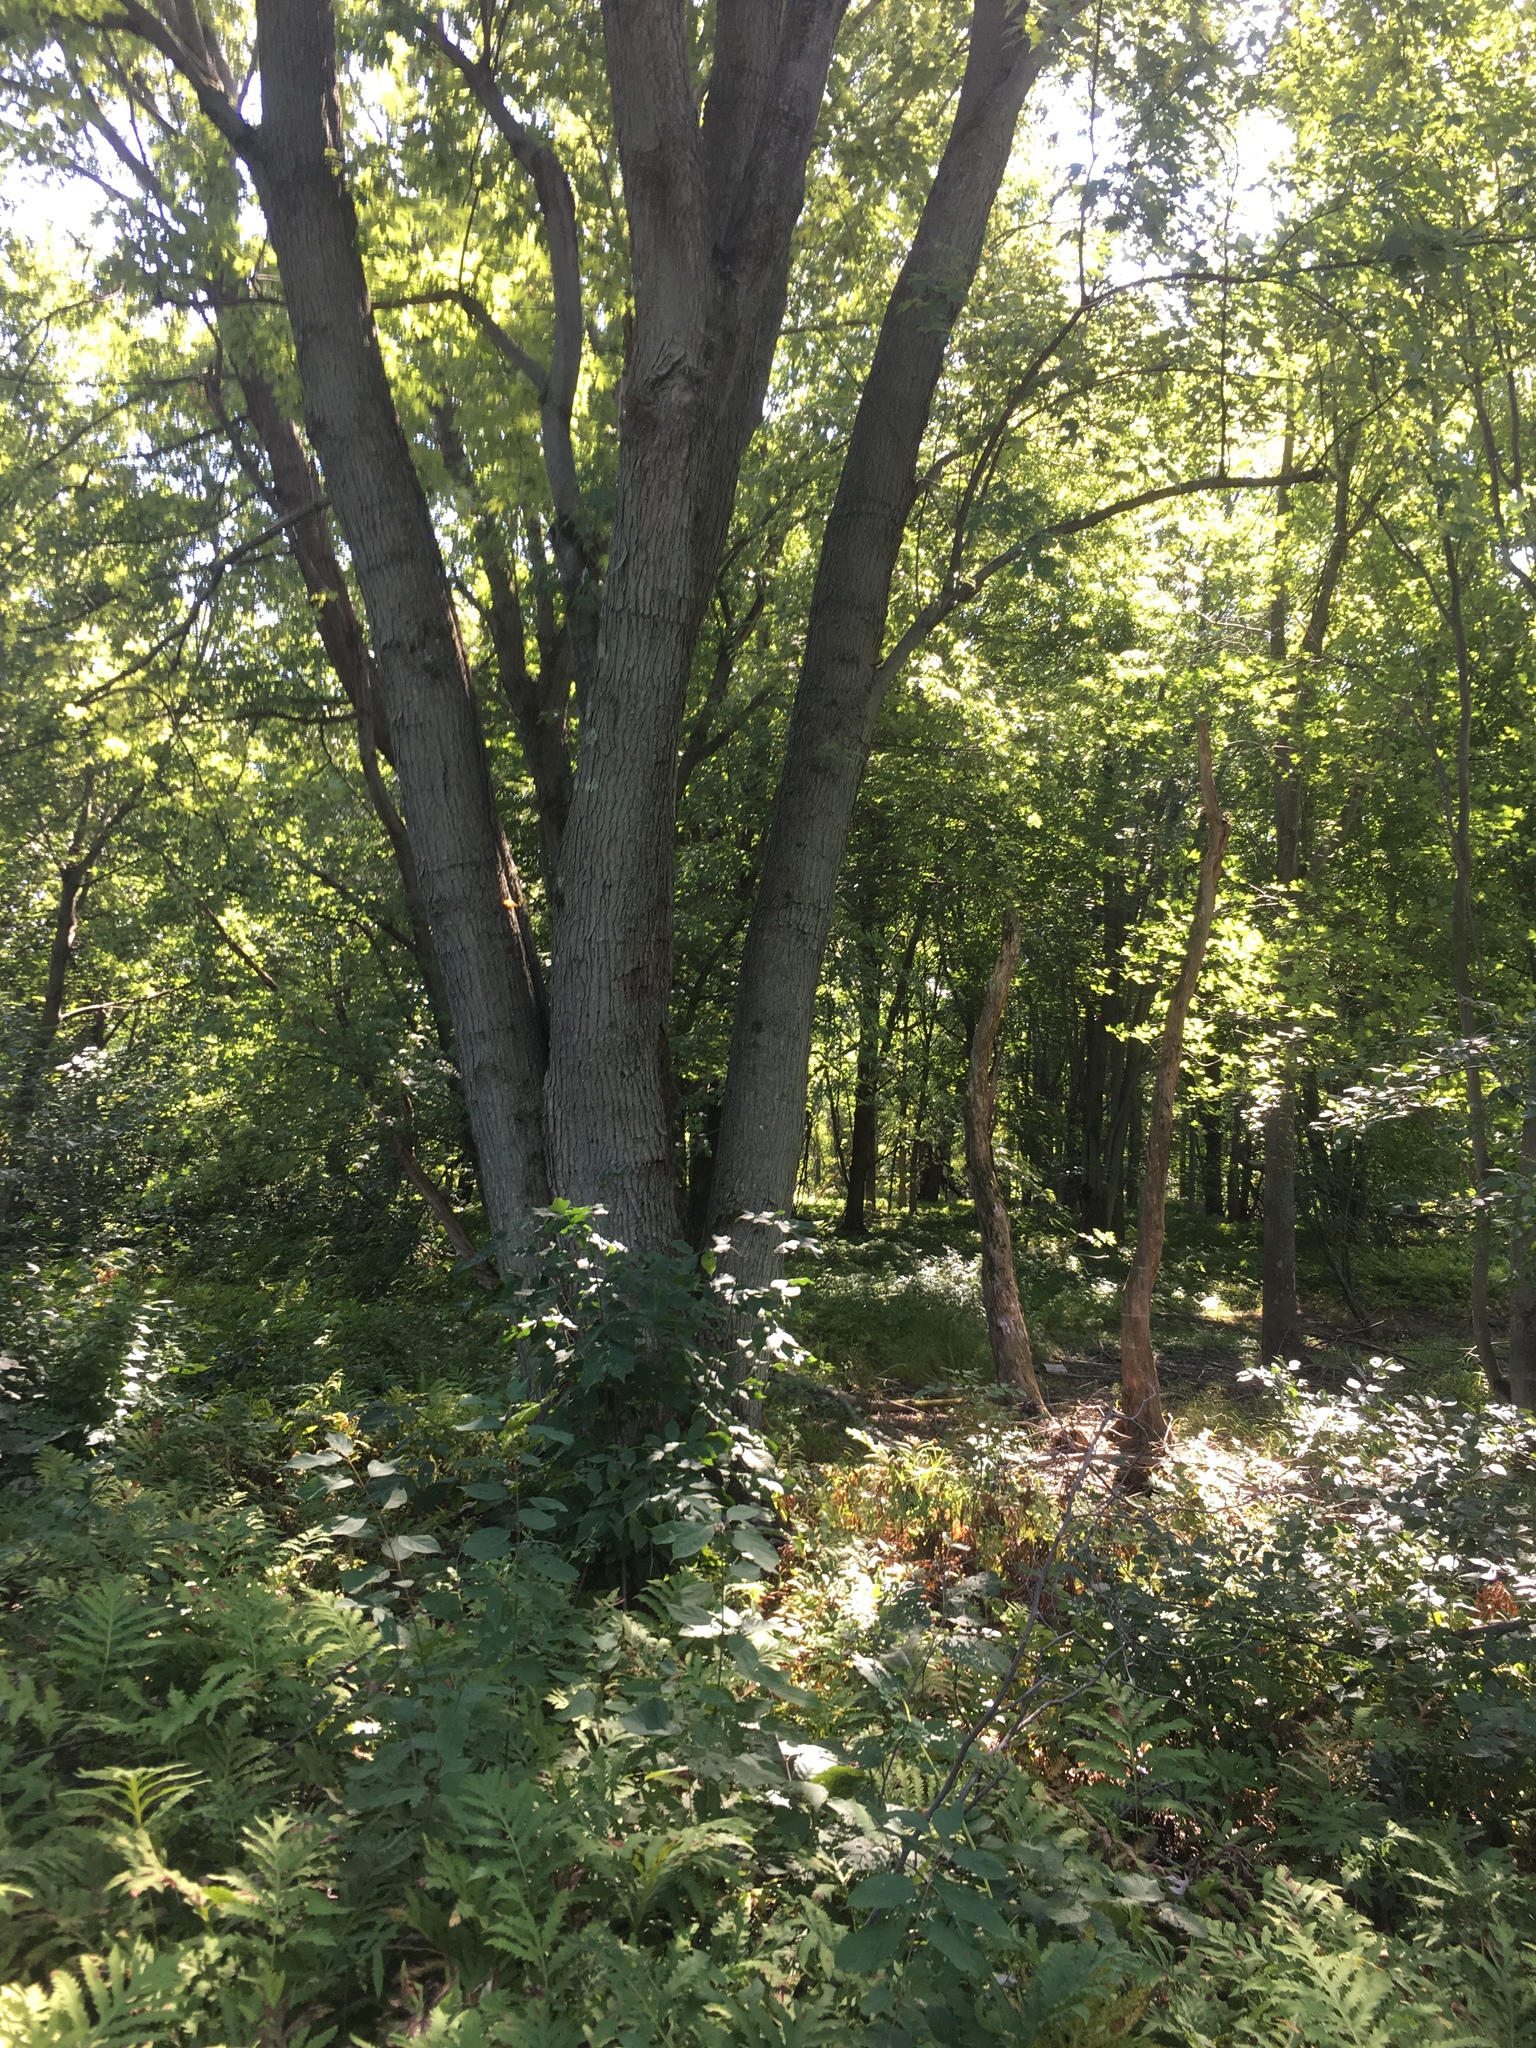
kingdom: Plantae
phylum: Tracheophyta
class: Magnoliopsida
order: Sapindales
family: Sapindaceae
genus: Acer
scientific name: Acer saccharinum
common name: Silver maple
